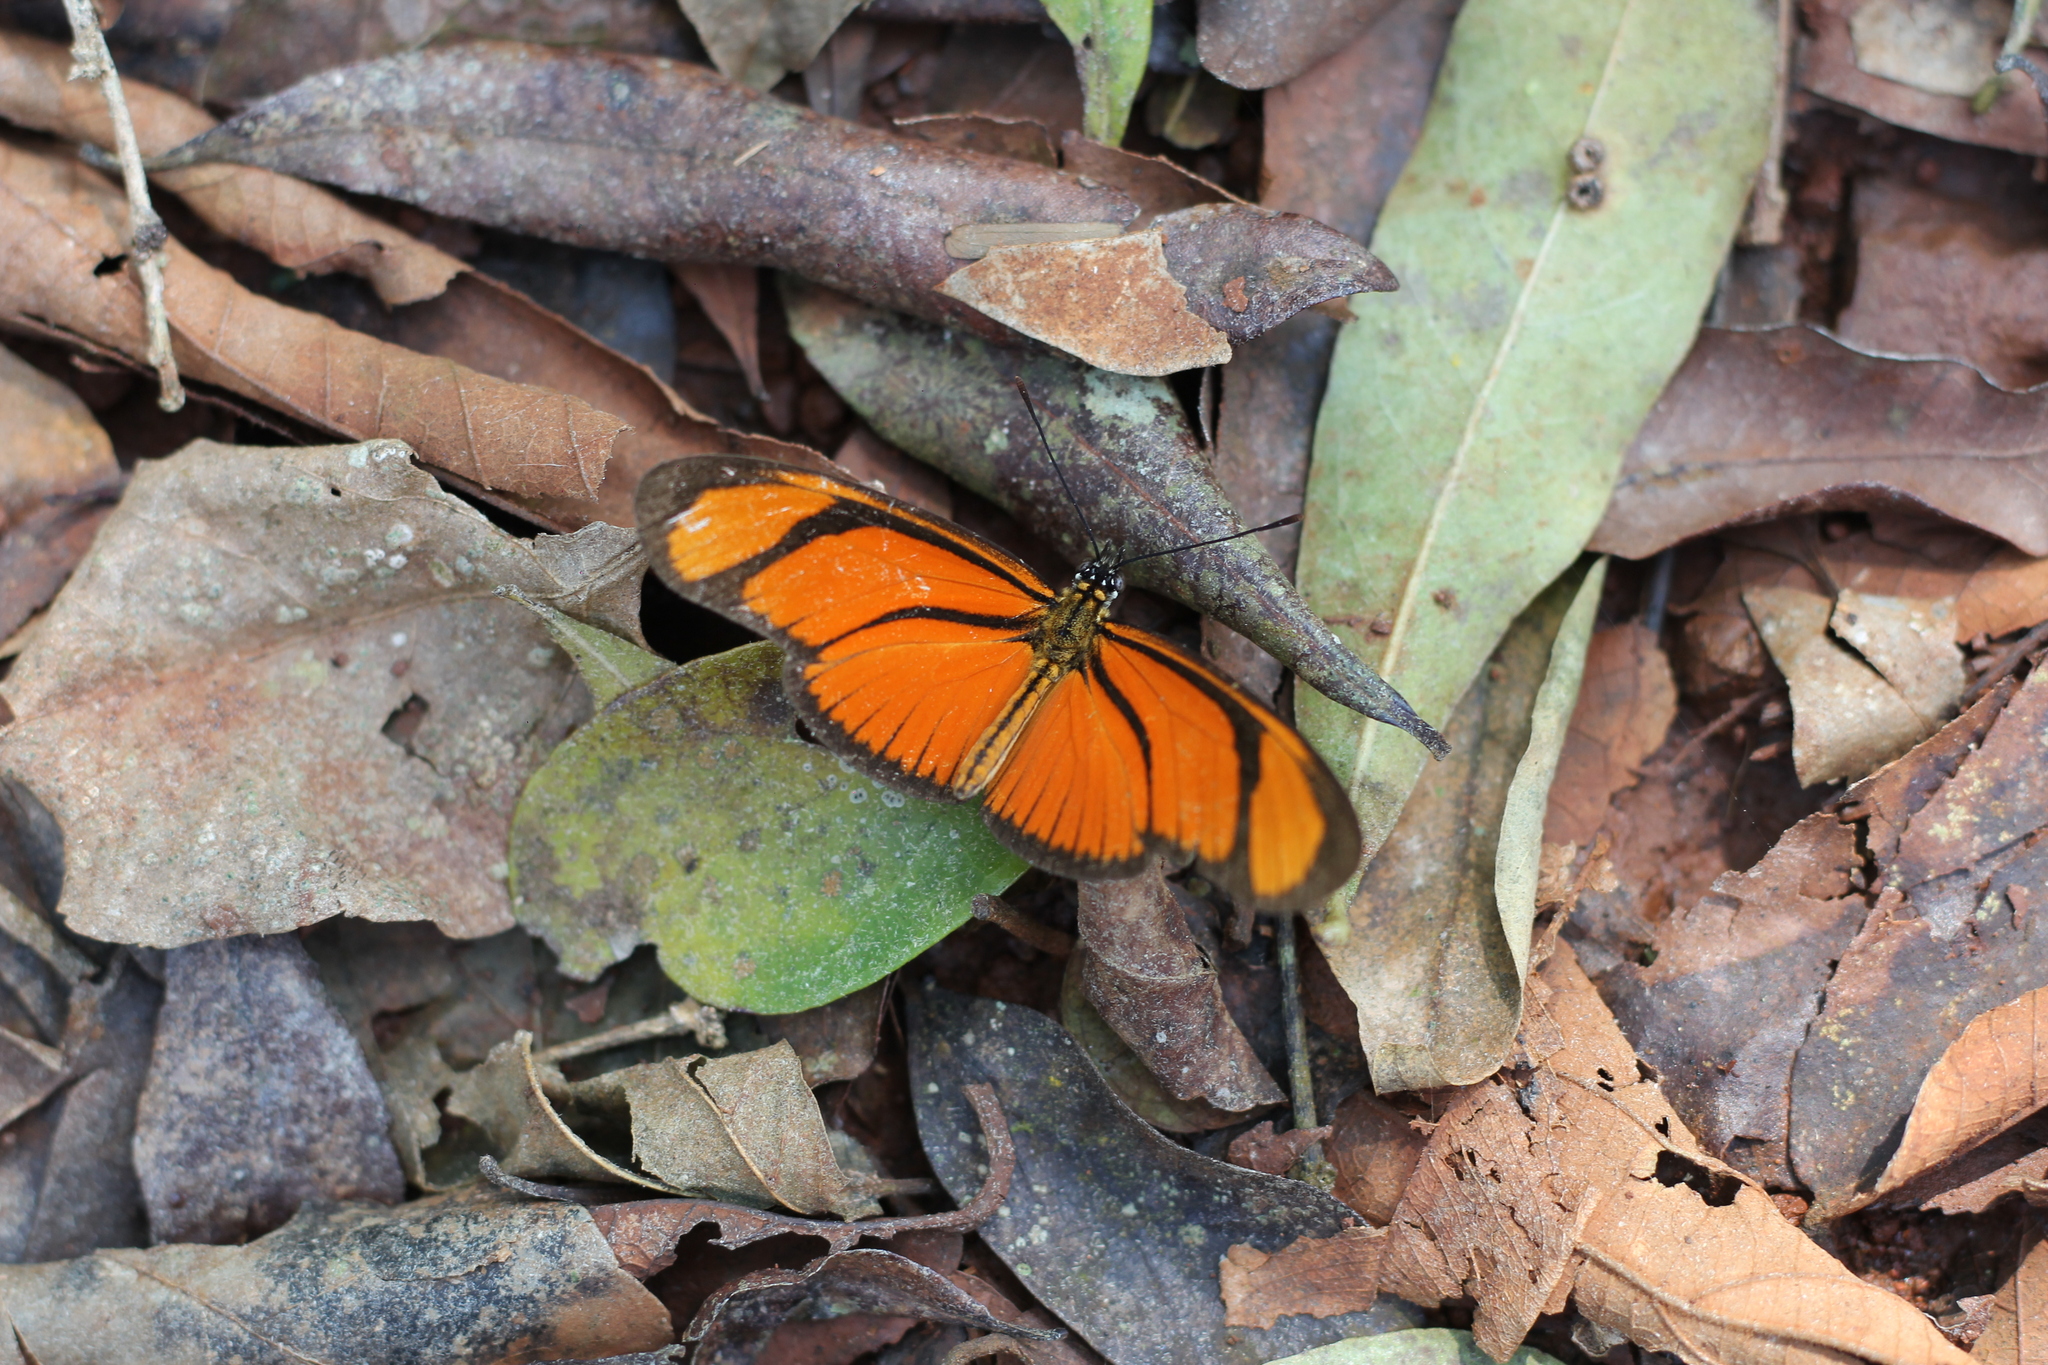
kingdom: Animalia
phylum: Arthropoda
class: Insecta
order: Lepidoptera
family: Nymphalidae
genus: Heliconius
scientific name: Heliconius aliphera
